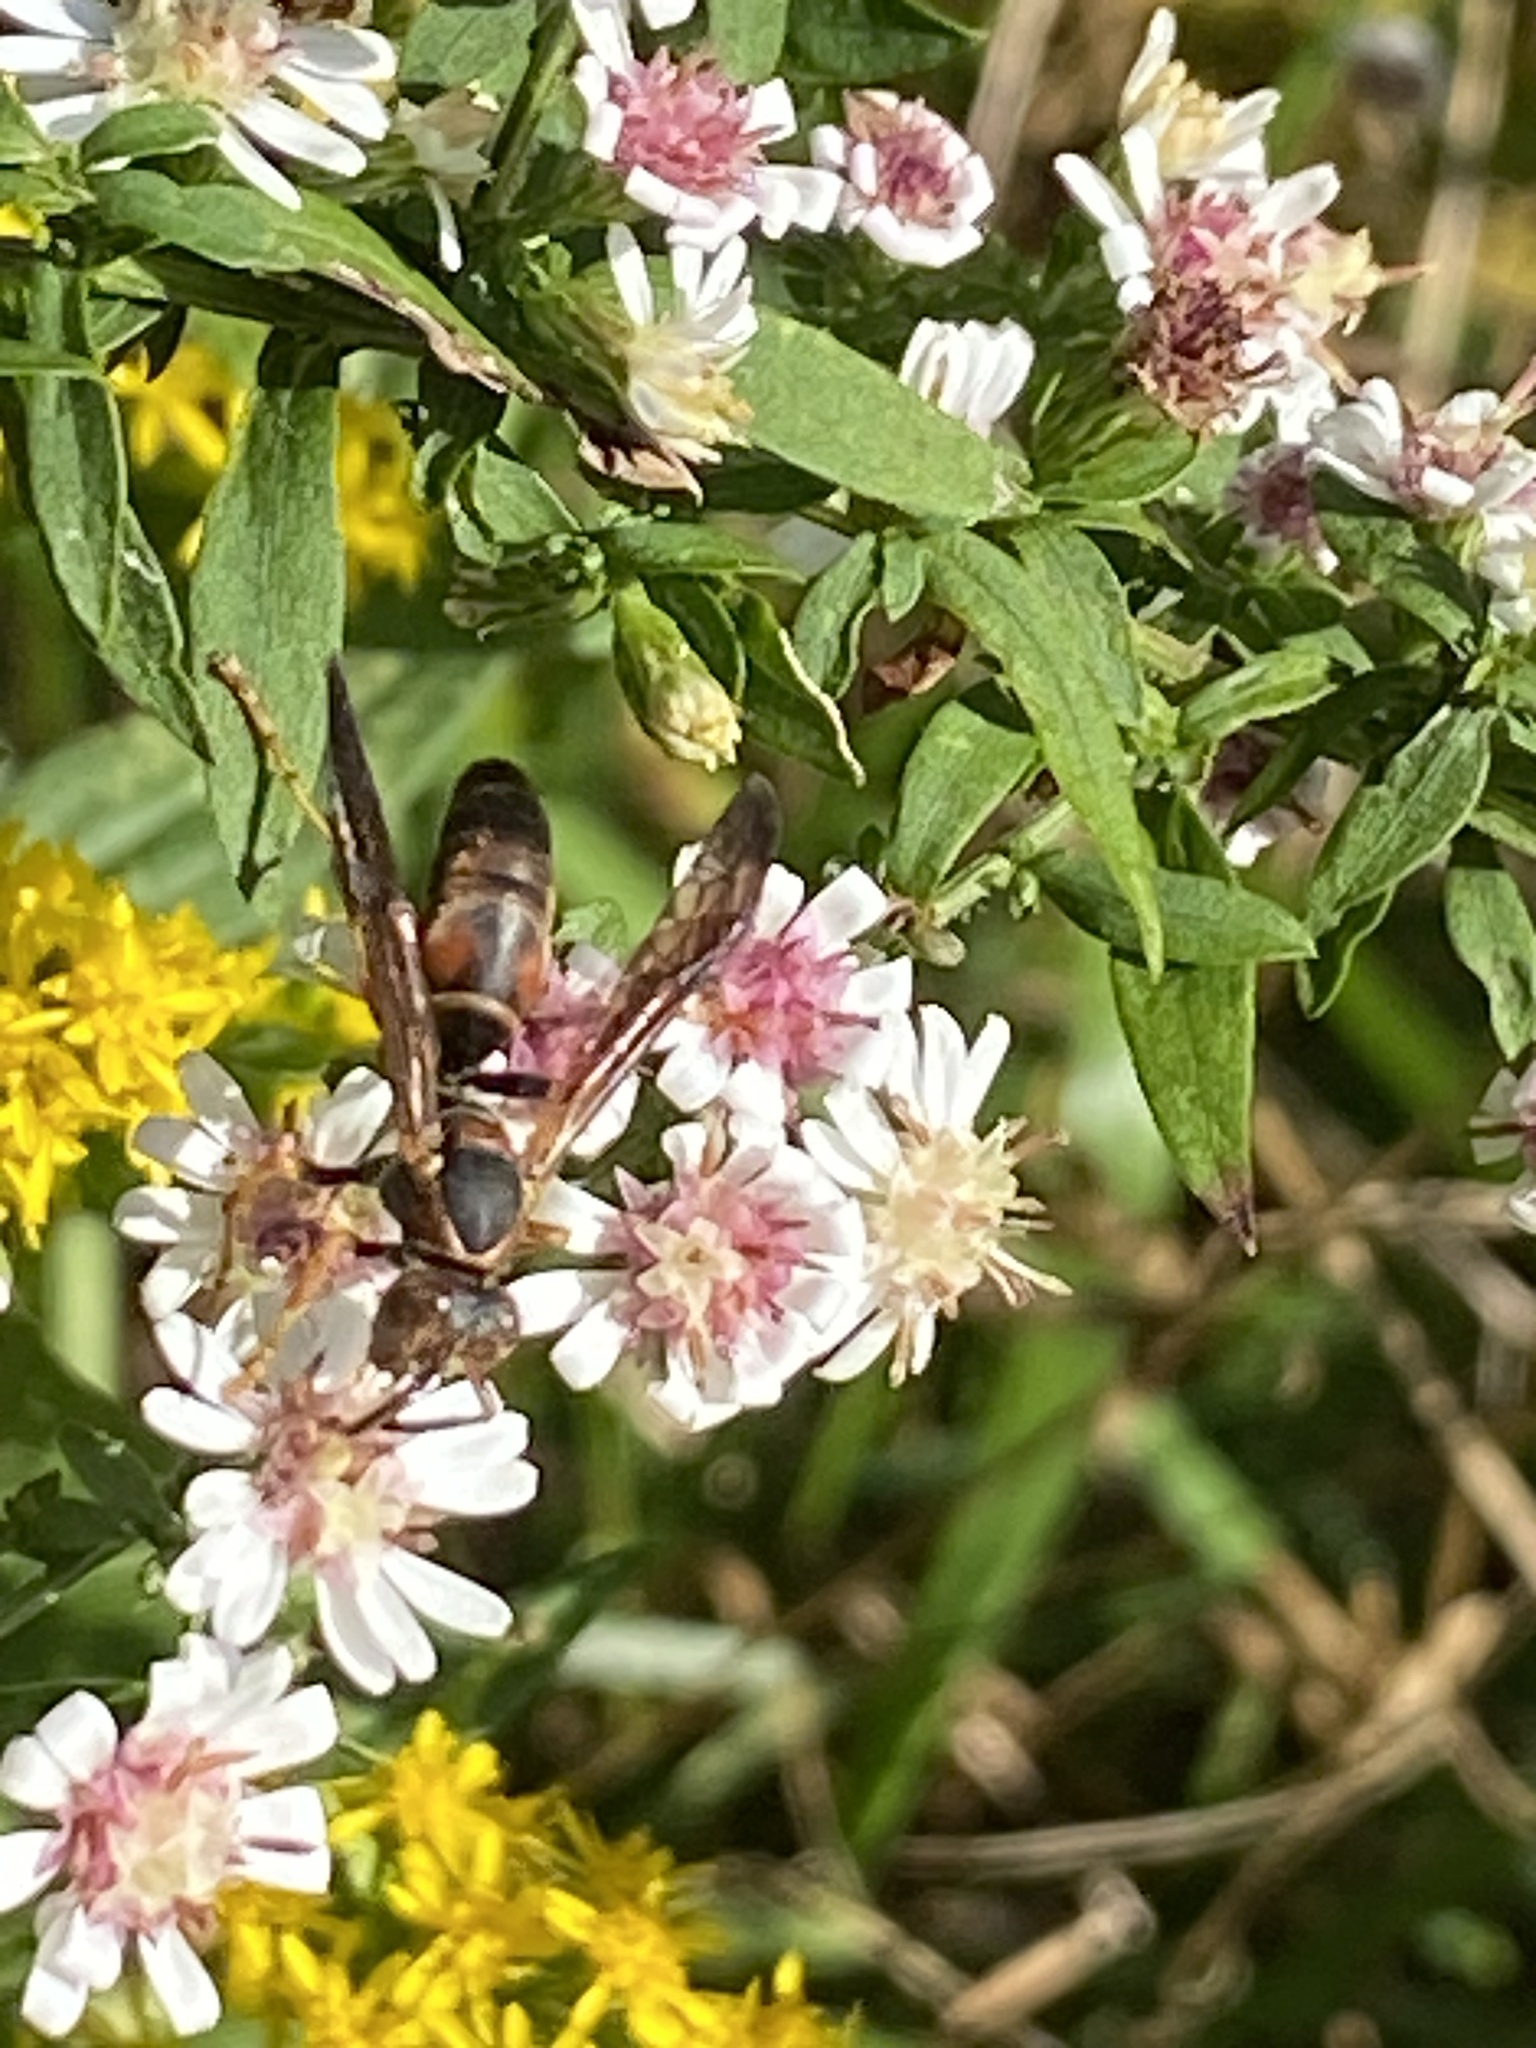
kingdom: Animalia
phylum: Arthropoda
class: Insecta
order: Hymenoptera
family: Eumenidae
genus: Polistes
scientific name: Polistes fuscatus
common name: Dark paper wasp
